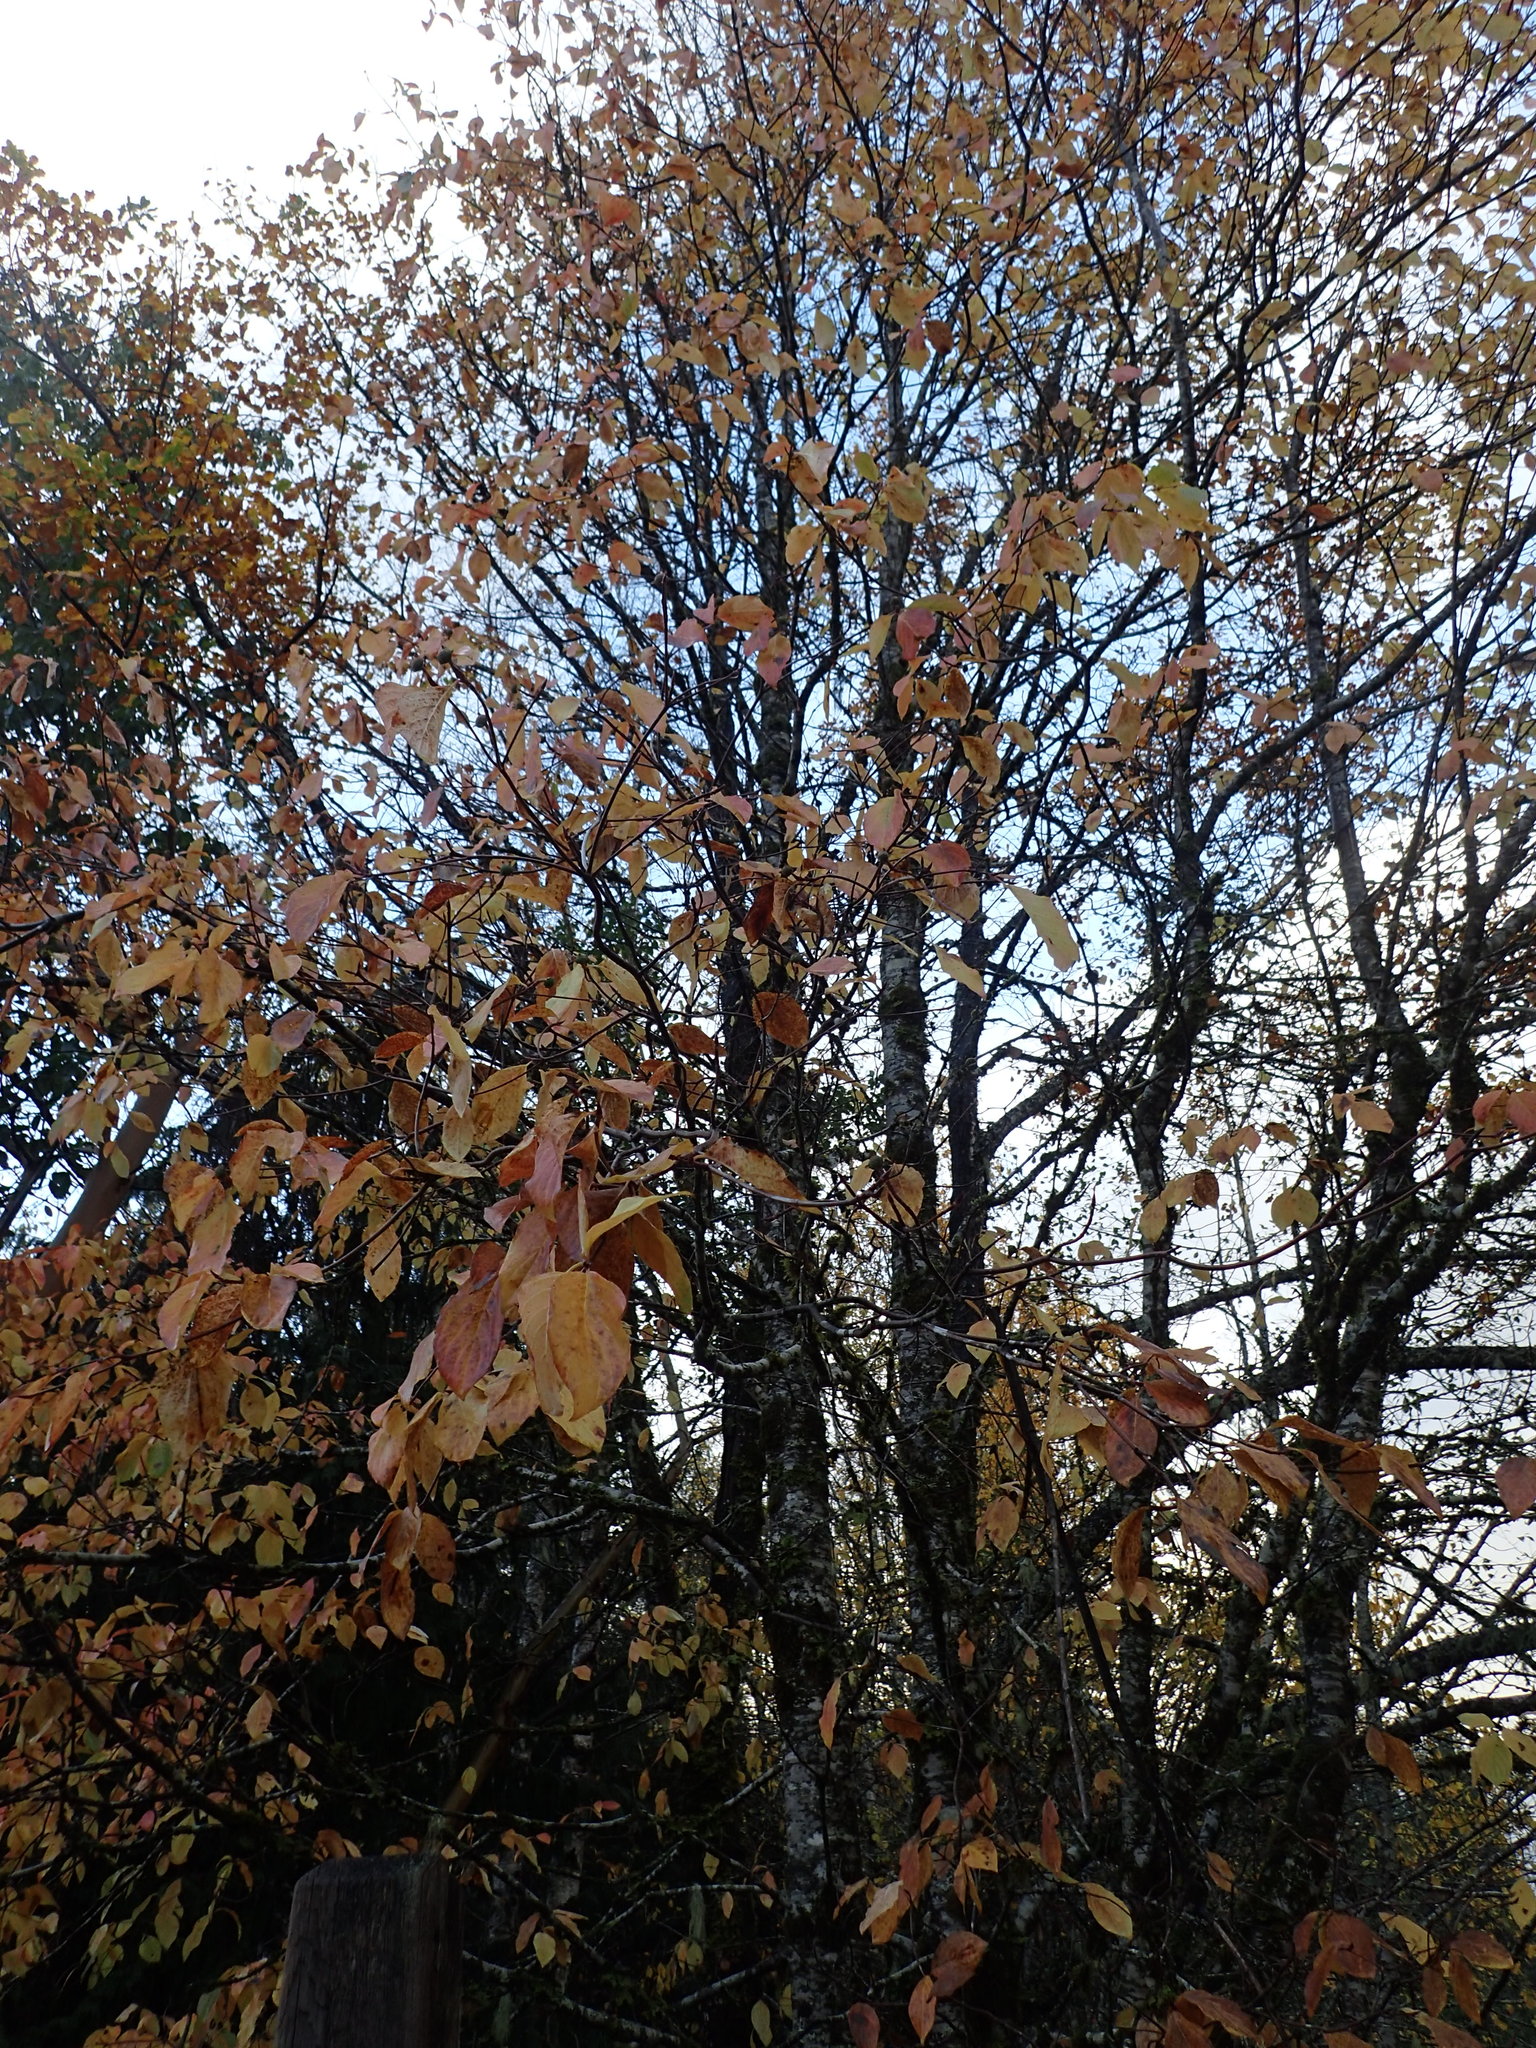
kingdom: Plantae
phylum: Tracheophyta
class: Magnoliopsida
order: Cornales
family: Cornaceae
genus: Cornus
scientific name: Cornus nuttallii
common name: Pacific dogwood
